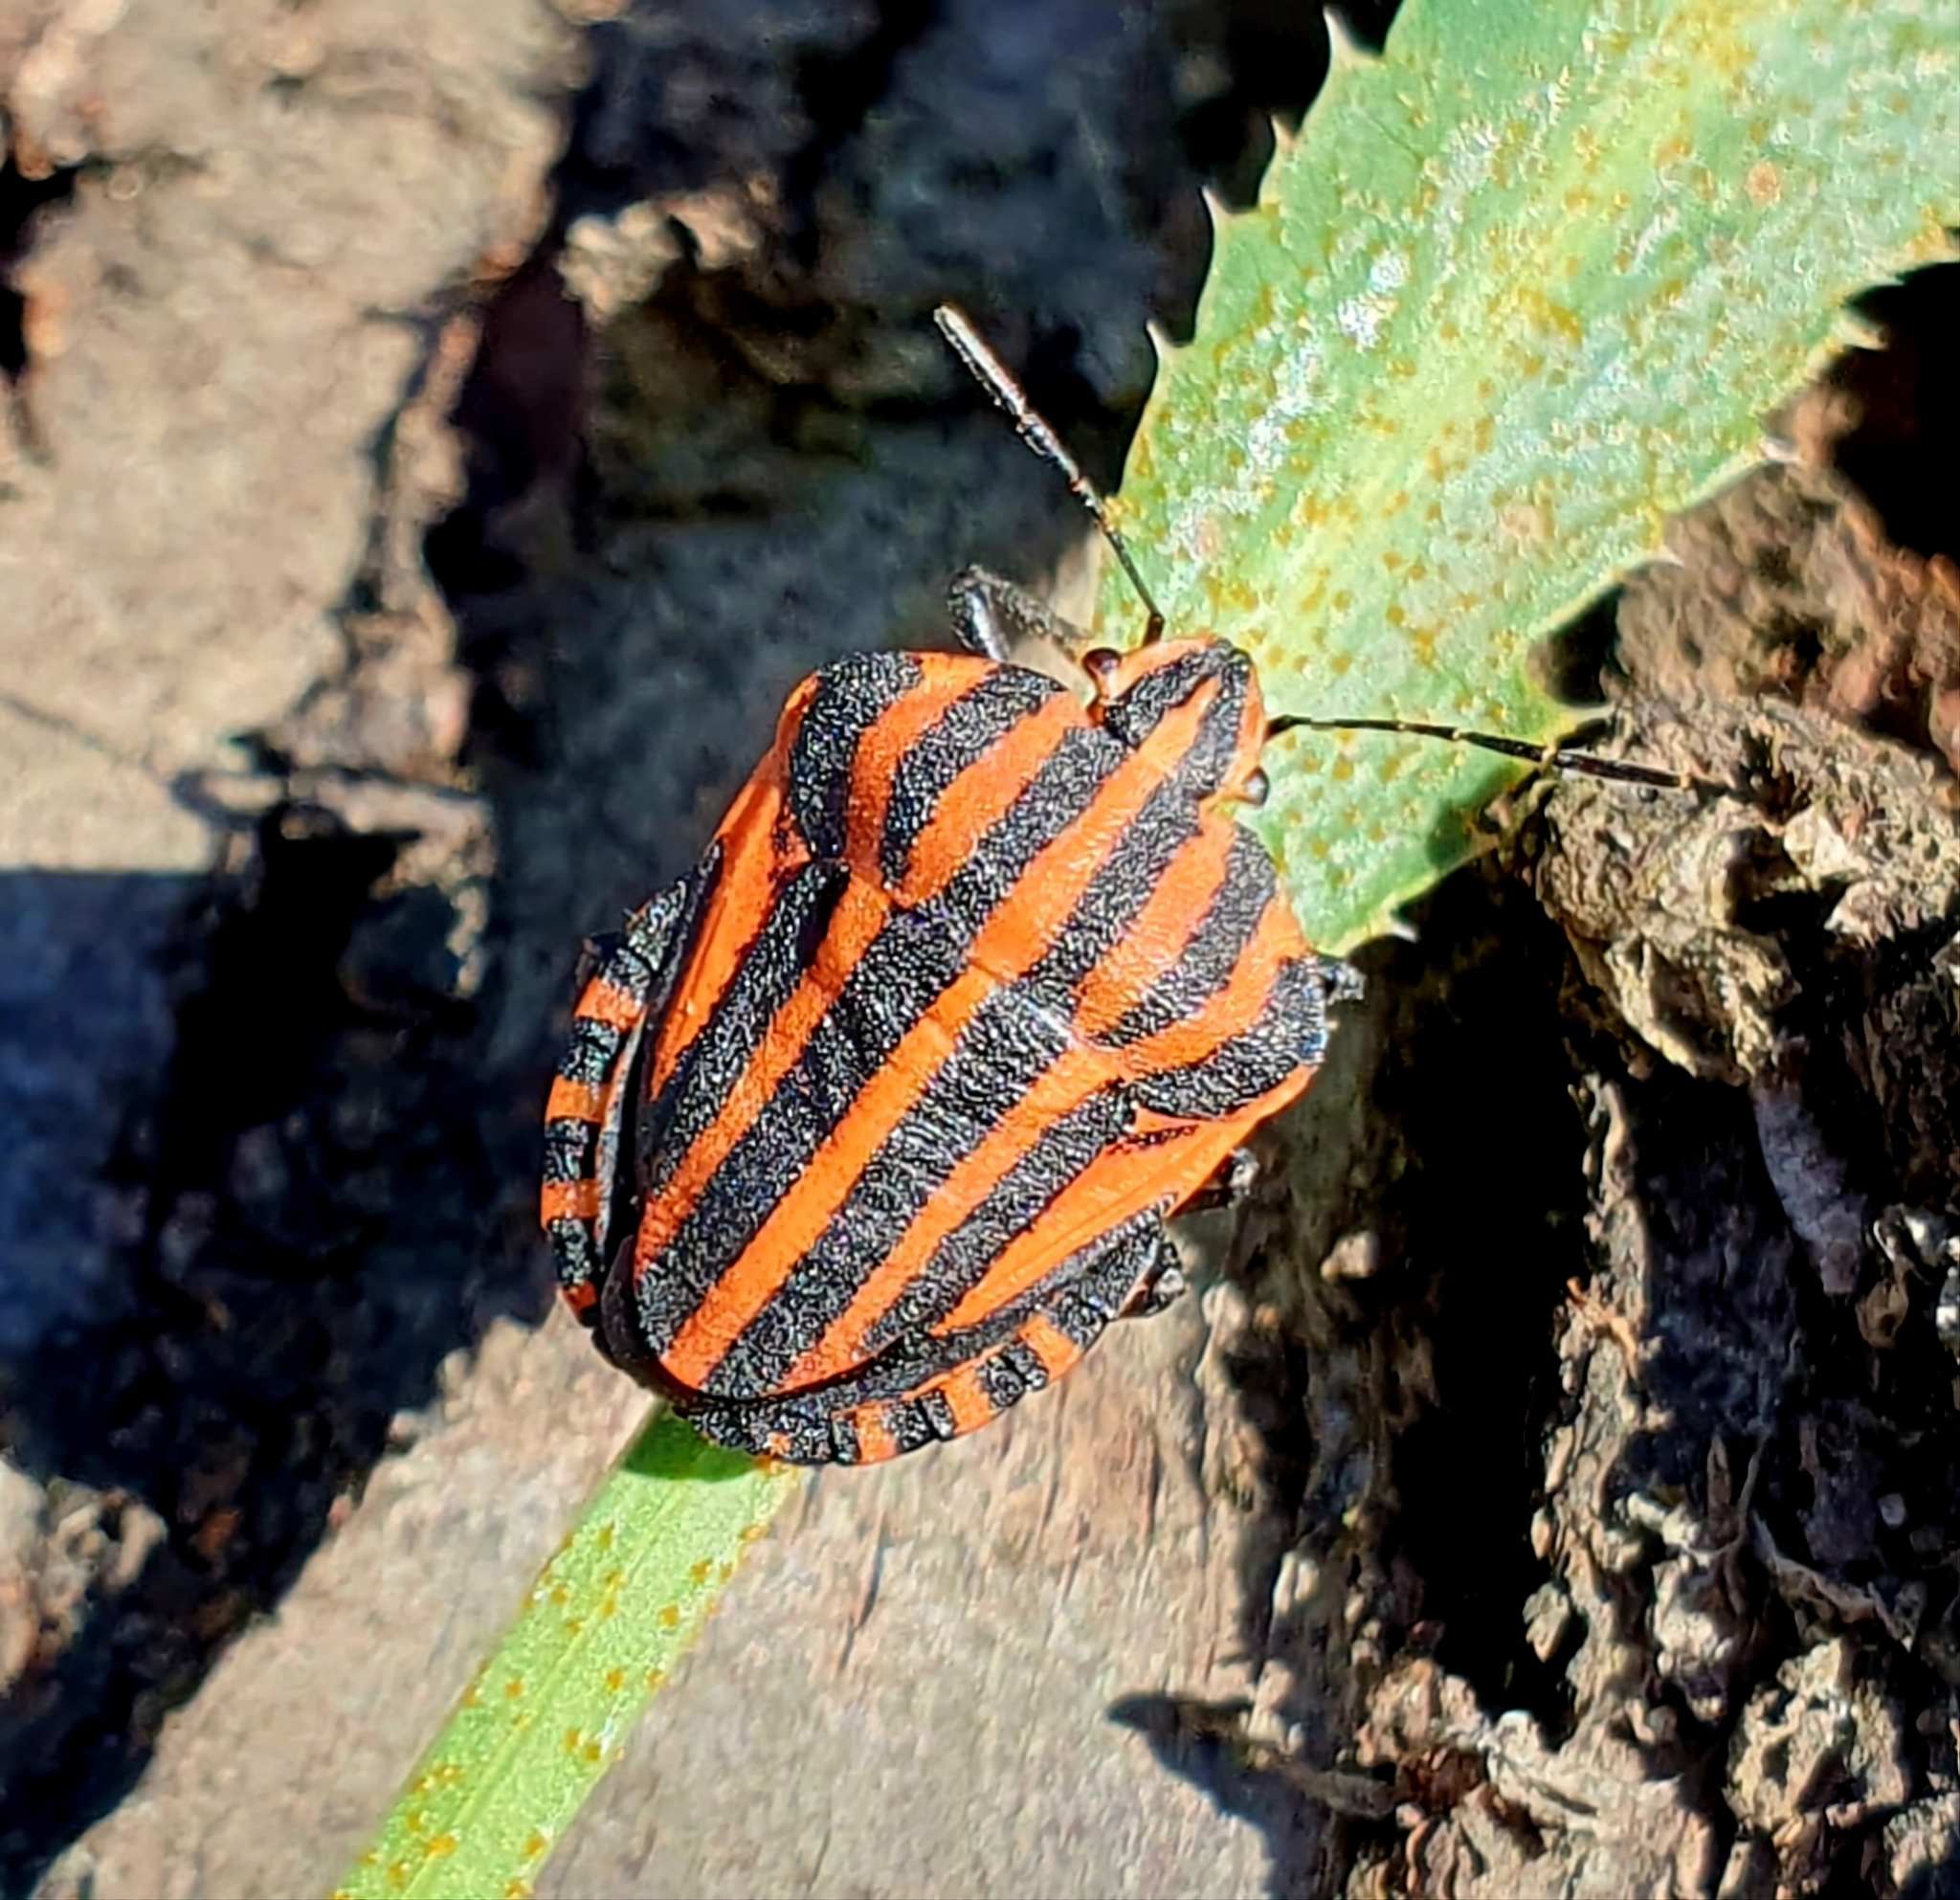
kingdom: Animalia
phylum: Arthropoda
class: Insecta
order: Hemiptera
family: Pentatomidae
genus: Graphosoma
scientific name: Graphosoma italicum
